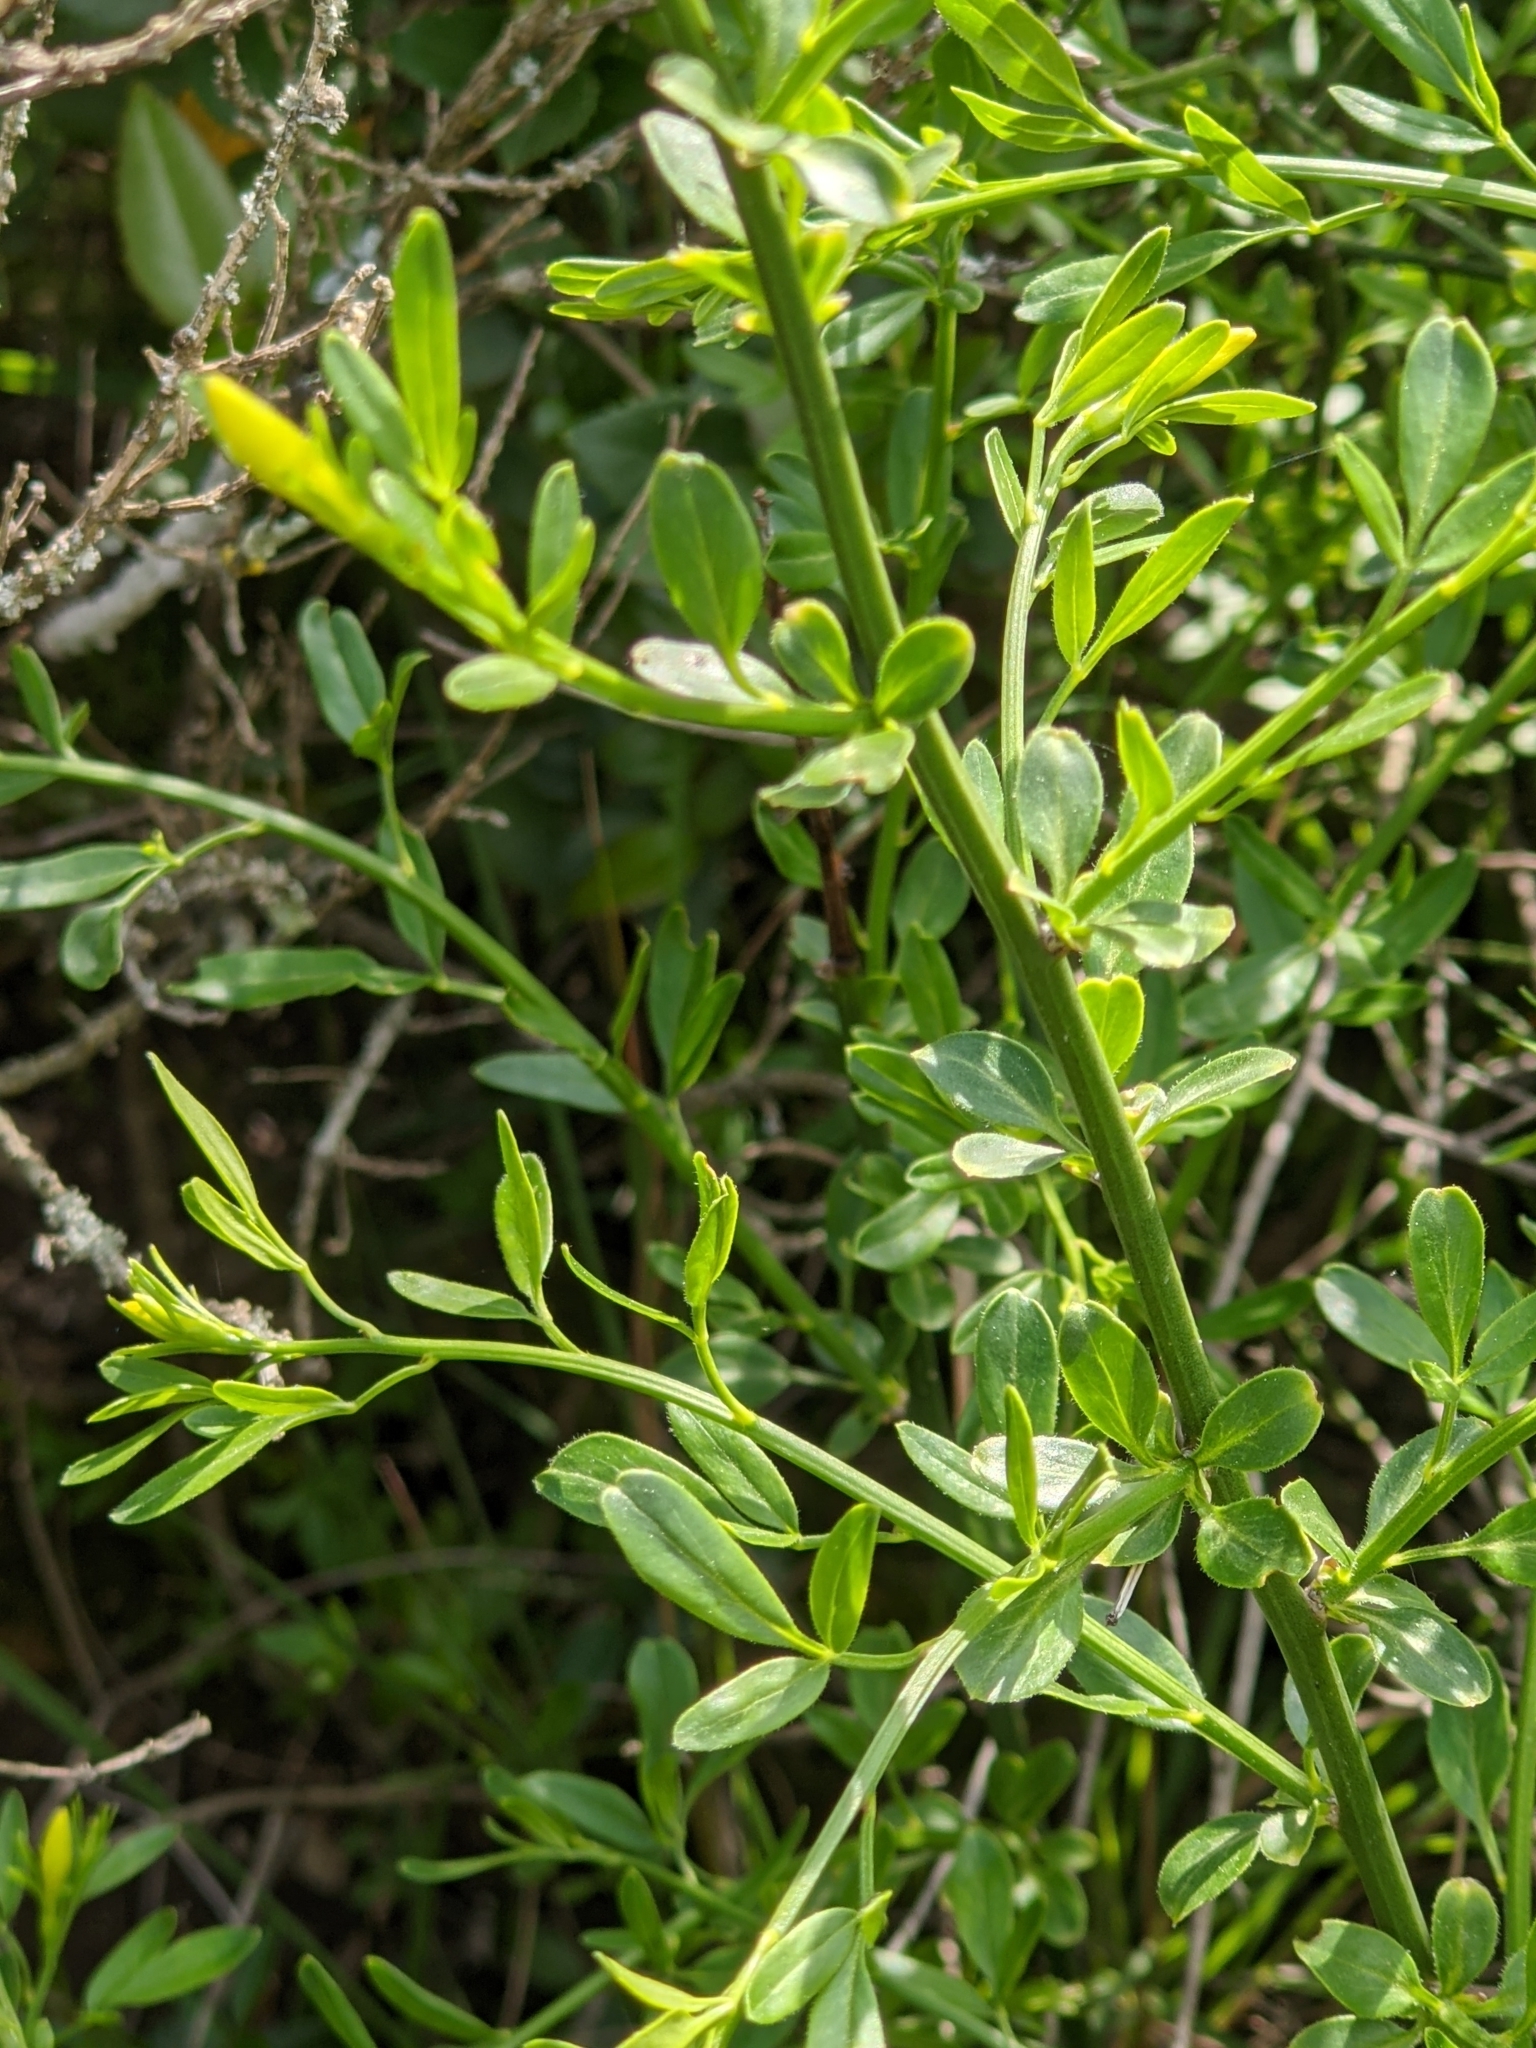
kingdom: Plantae
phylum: Tracheophyta
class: Magnoliopsida
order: Lamiales
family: Oleaceae
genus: Chrysojasminum
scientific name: Chrysojasminum fruticans
